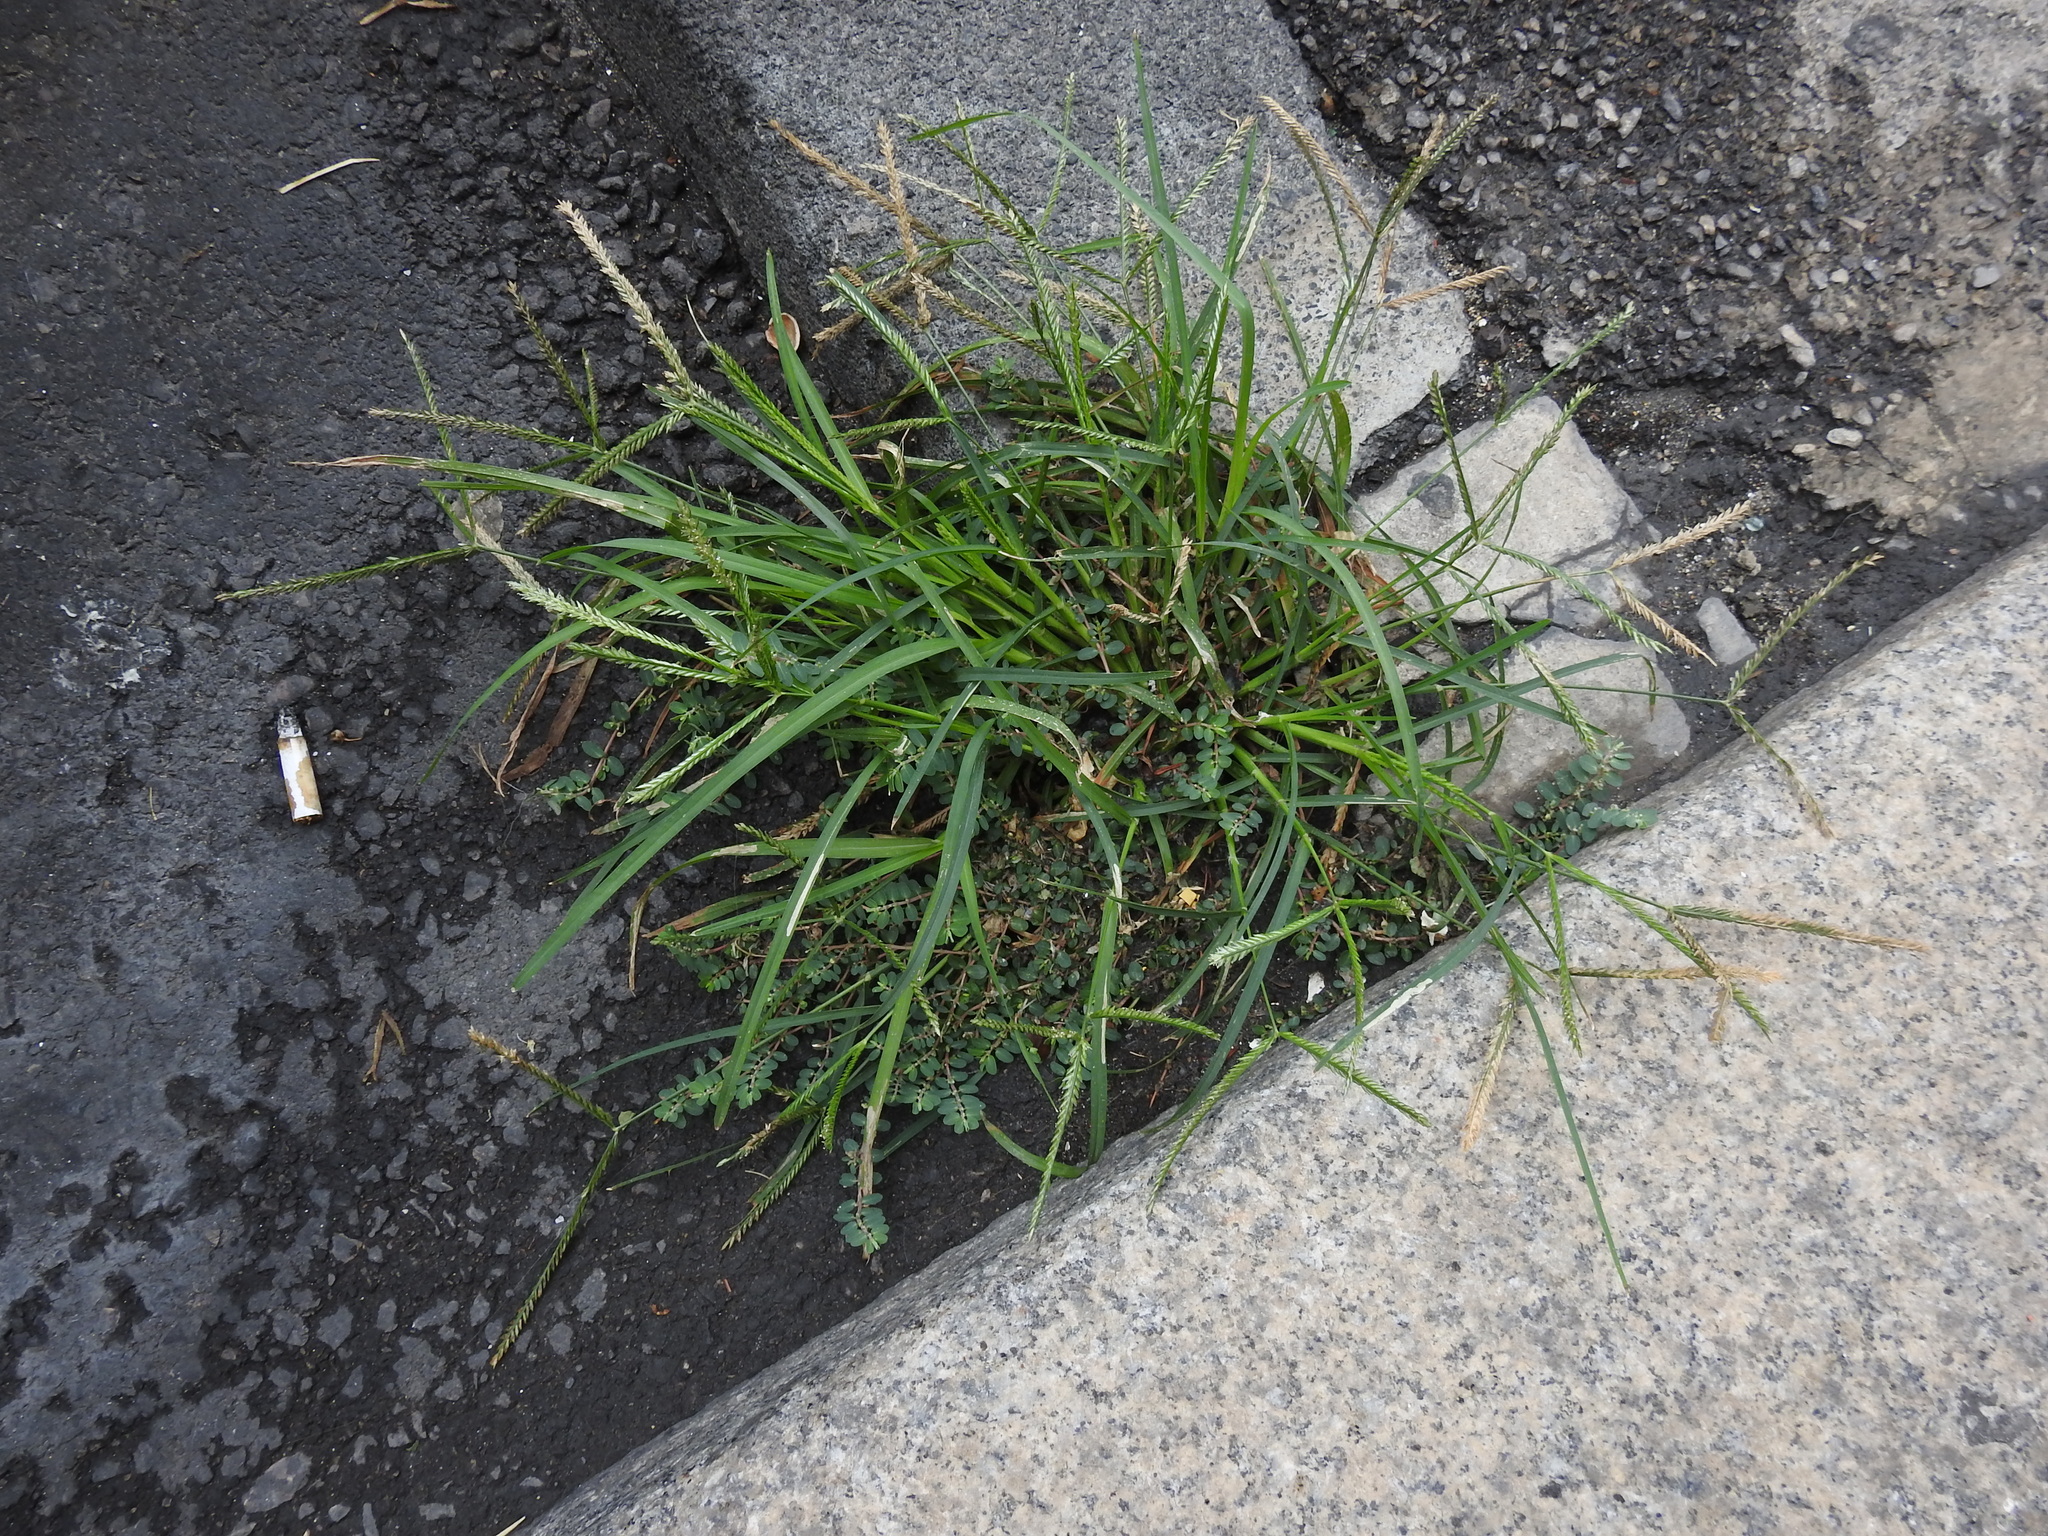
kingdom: Plantae
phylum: Tracheophyta
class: Liliopsida
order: Poales
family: Poaceae
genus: Eleusine
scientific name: Eleusine indica
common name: Yard-grass
